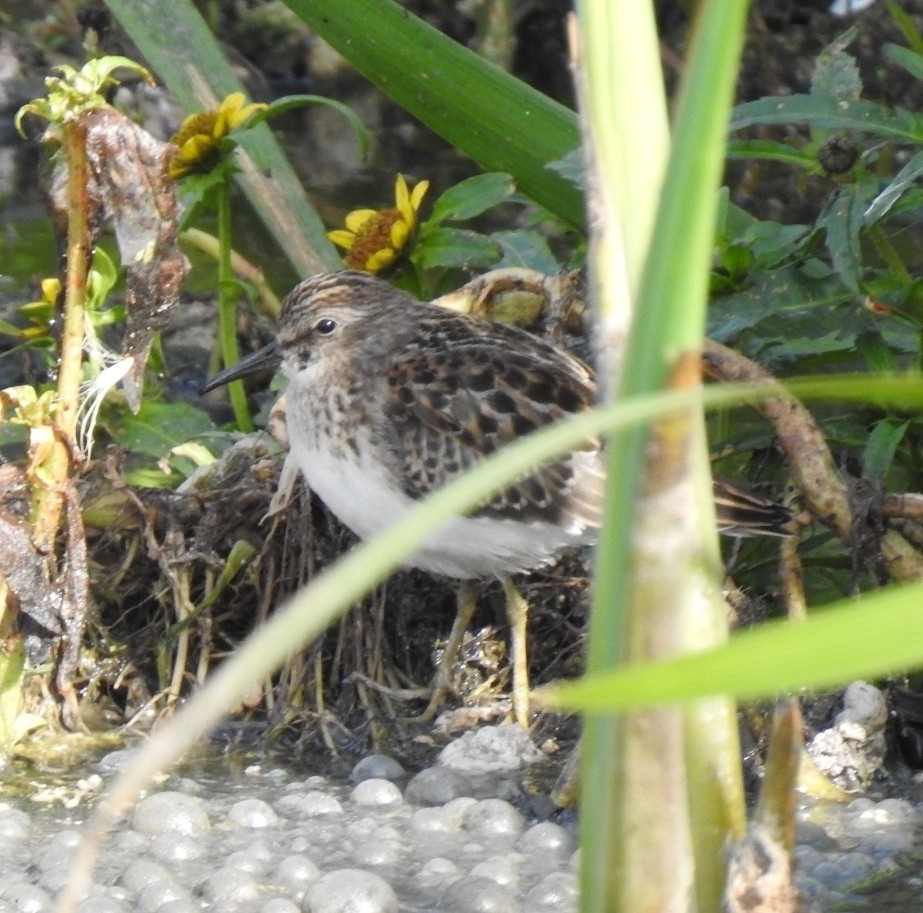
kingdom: Animalia
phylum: Chordata
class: Aves
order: Charadriiformes
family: Scolopacidae
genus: Calidris
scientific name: Calidris minutilla
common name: Least sandpiper
